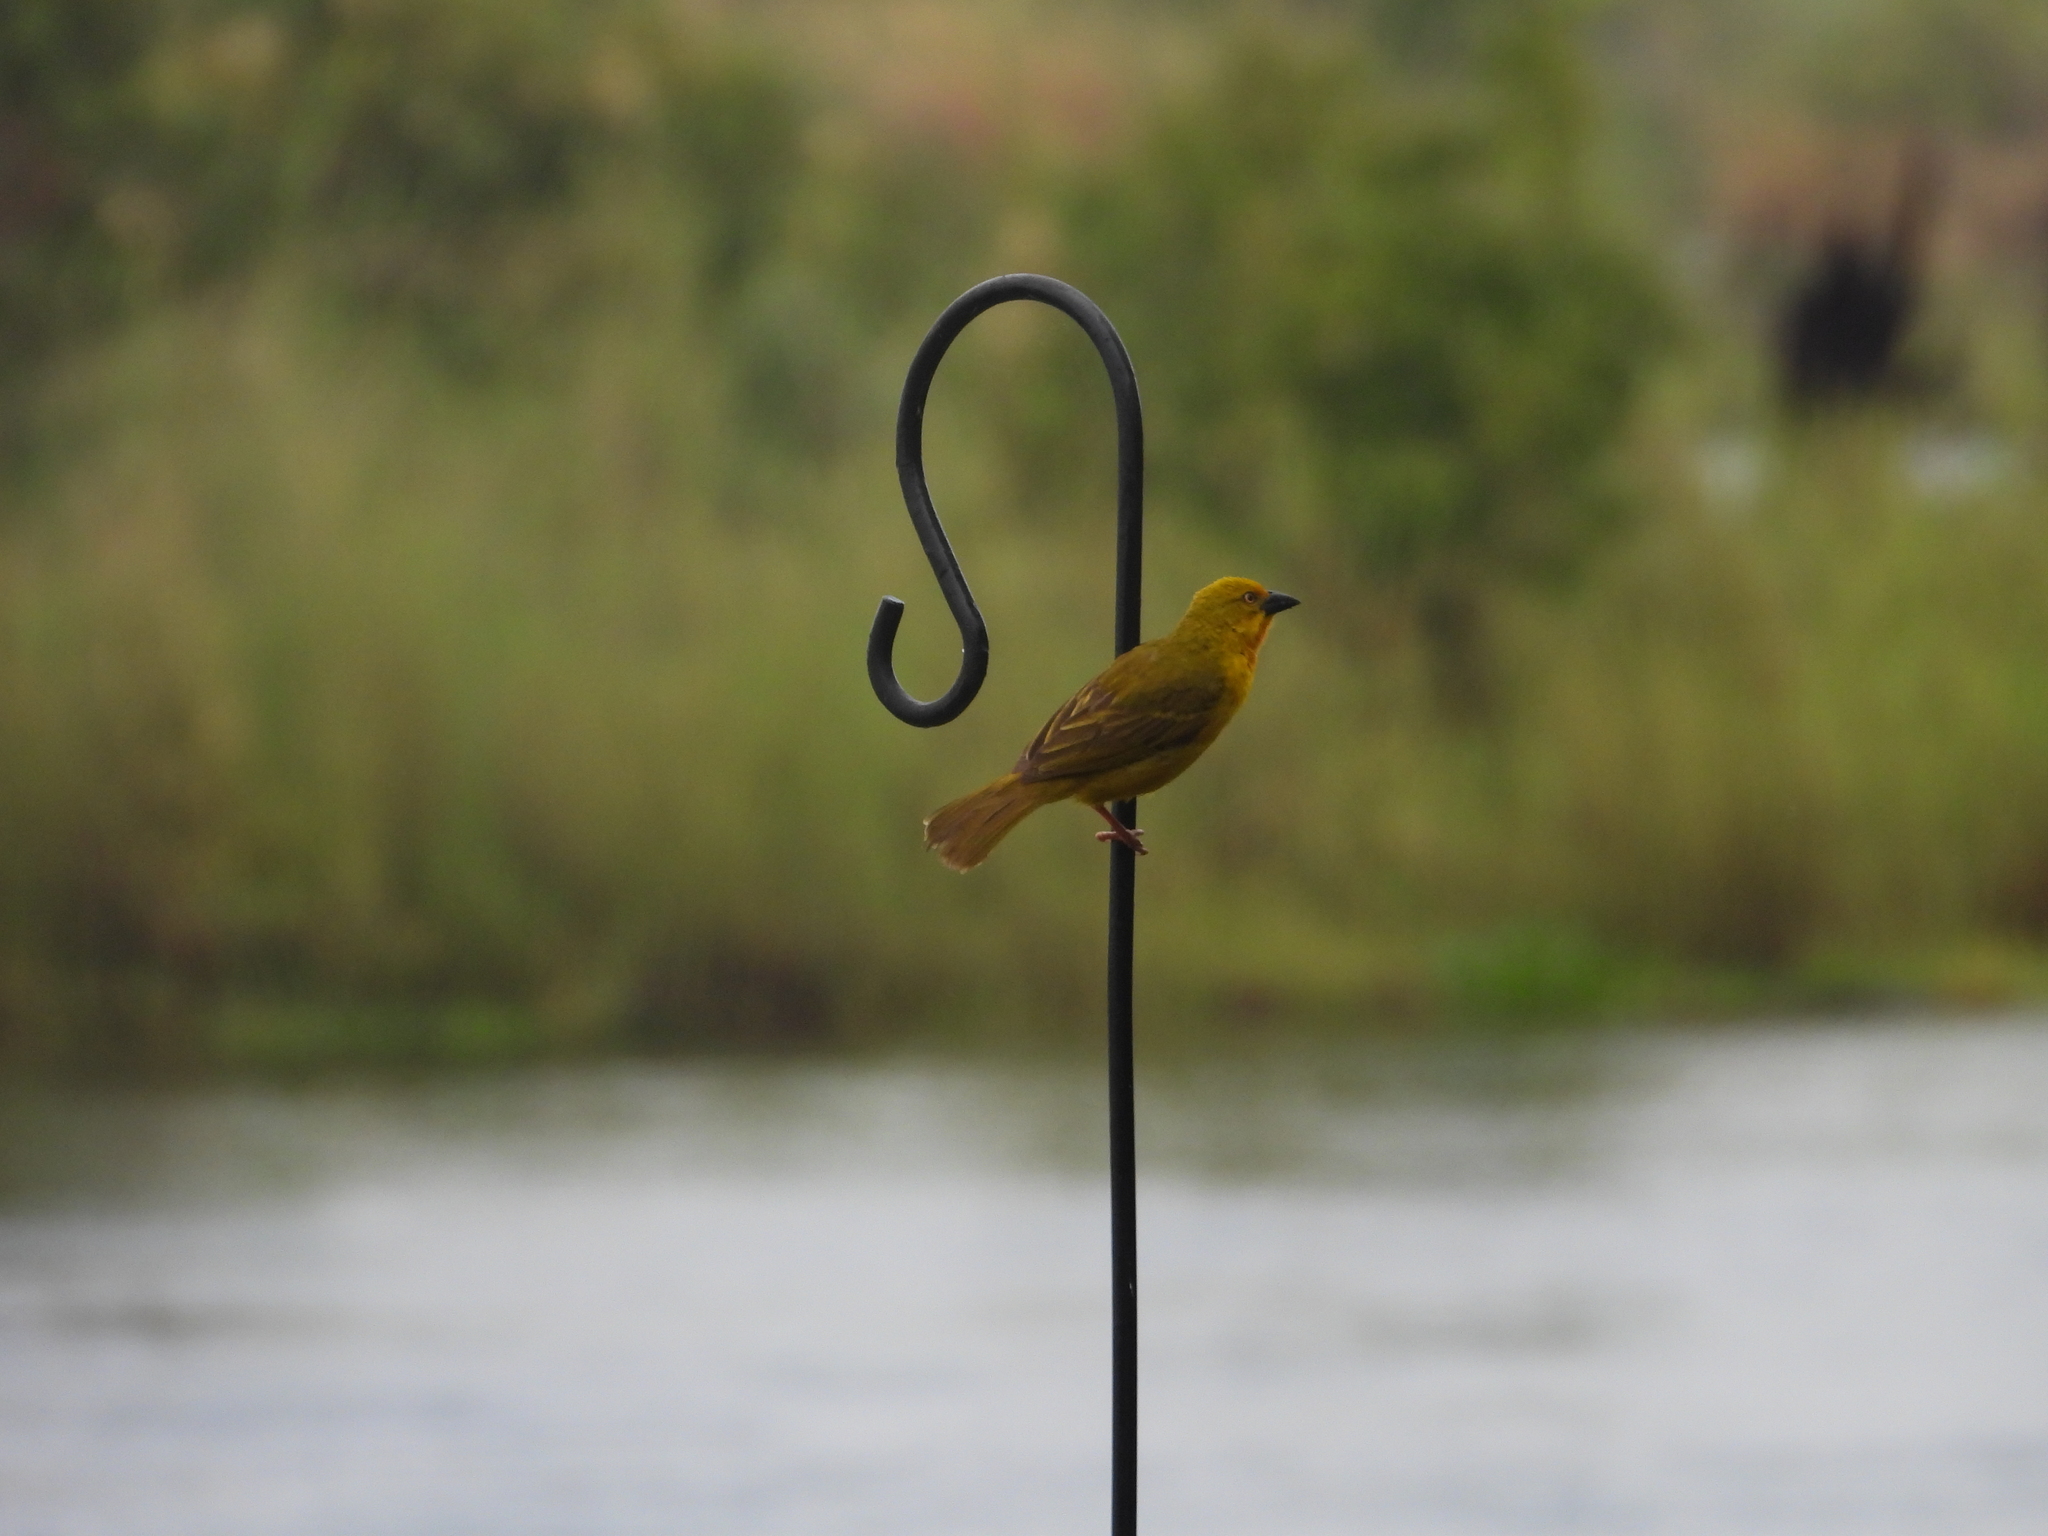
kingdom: Animalia
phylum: Chordata
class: Aves
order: Passeriformes
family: Ploceidae
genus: Ploceus
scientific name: Ploceus xanthops
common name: Holub's golden weaver
